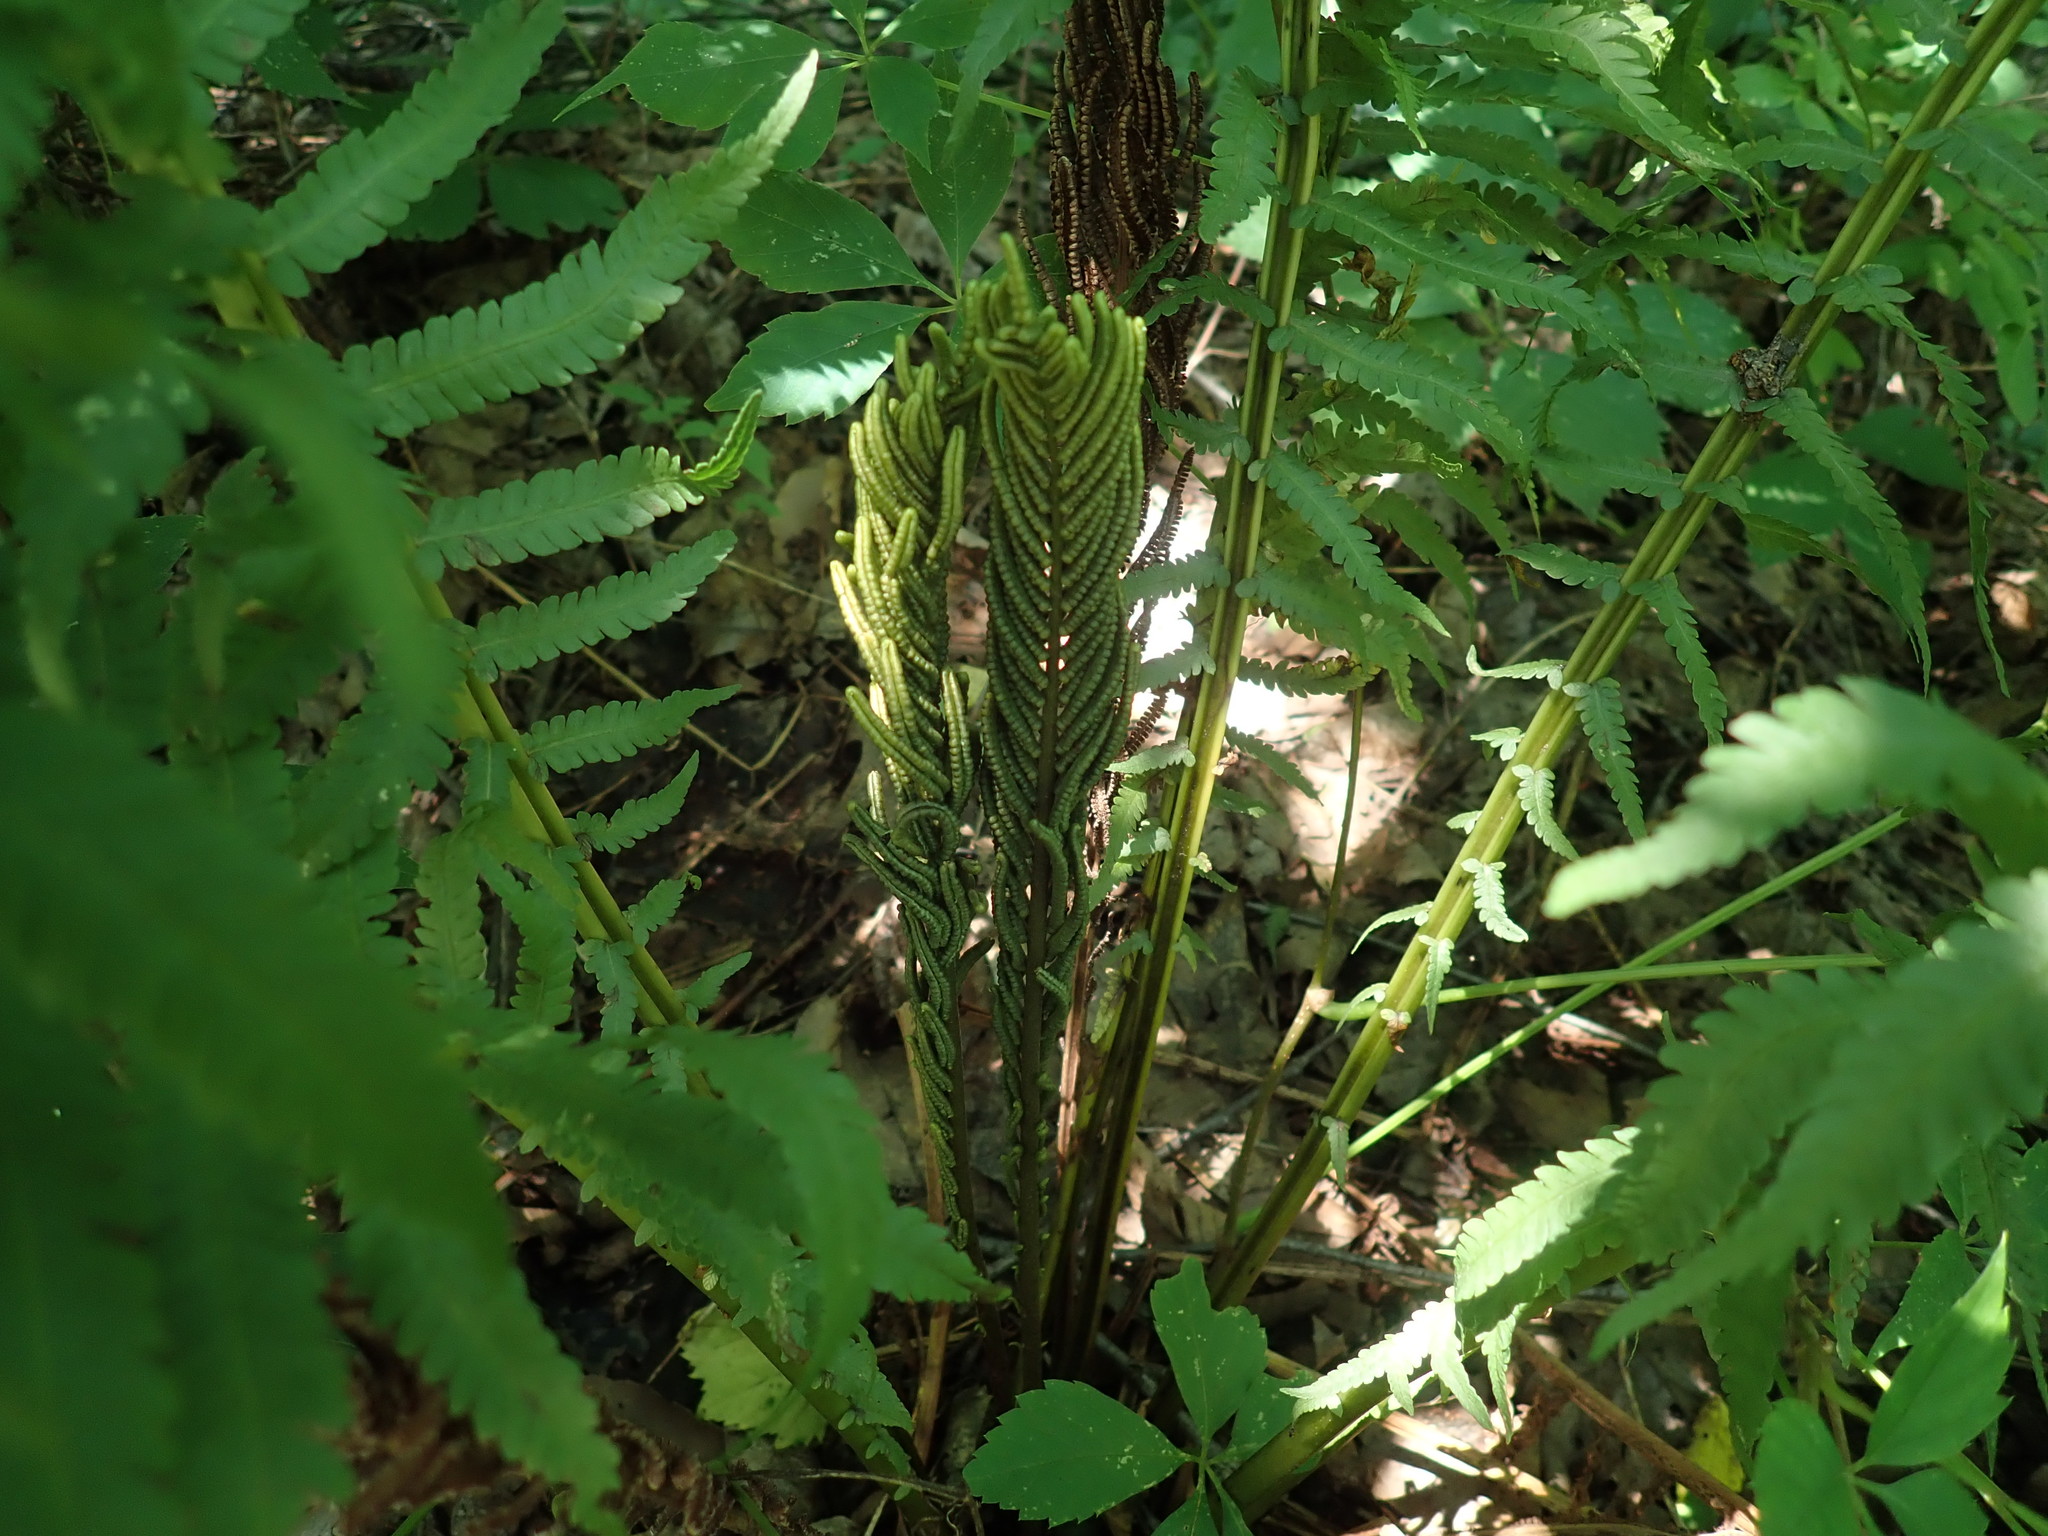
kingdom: Plantae
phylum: Tracheophyta
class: Polypodiopsida
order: Polypodiales
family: Onocleaceae
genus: Matteuccia
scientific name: Matteuccia struthiopteris
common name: Ostrich fern
